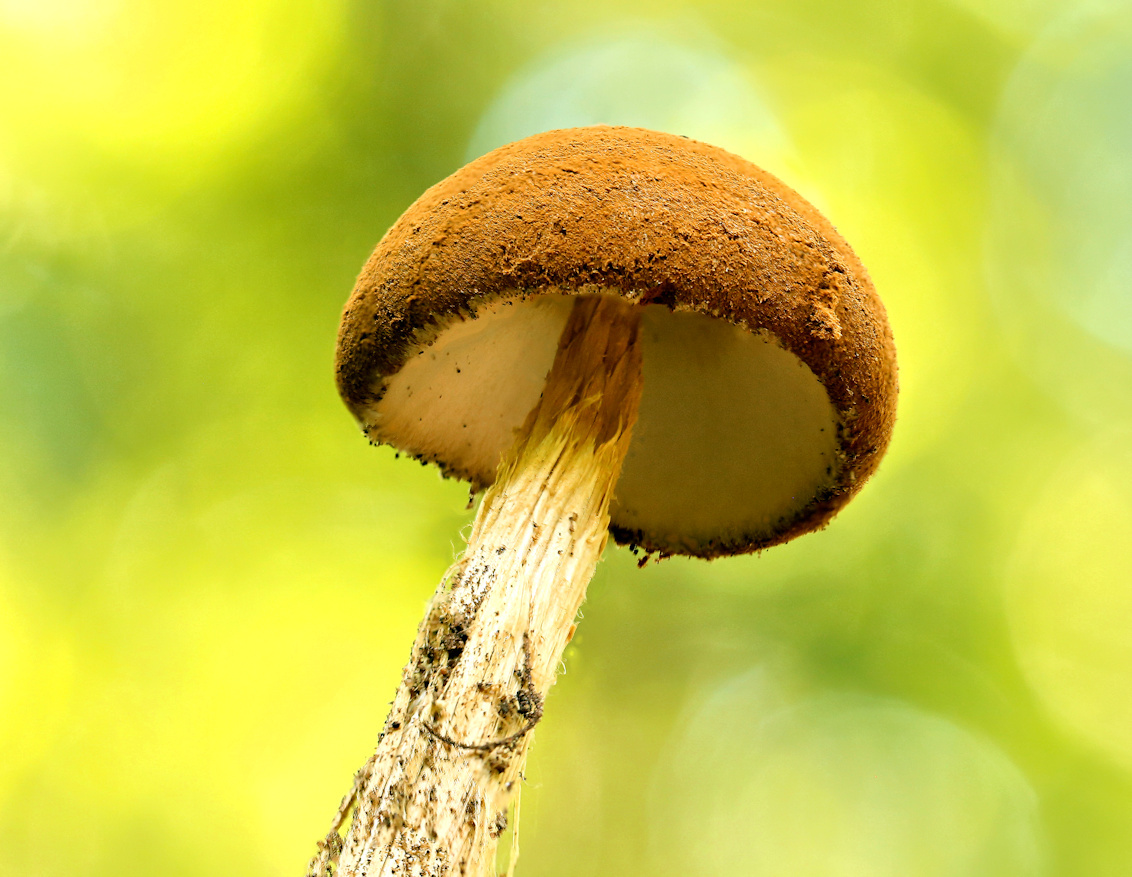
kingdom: Fungi
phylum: Basidiomycota
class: Agaricomycetes
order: Agaricales
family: Agaricaceae
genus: Battarrea
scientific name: Battarrea phalloides
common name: Sandy stiltball
